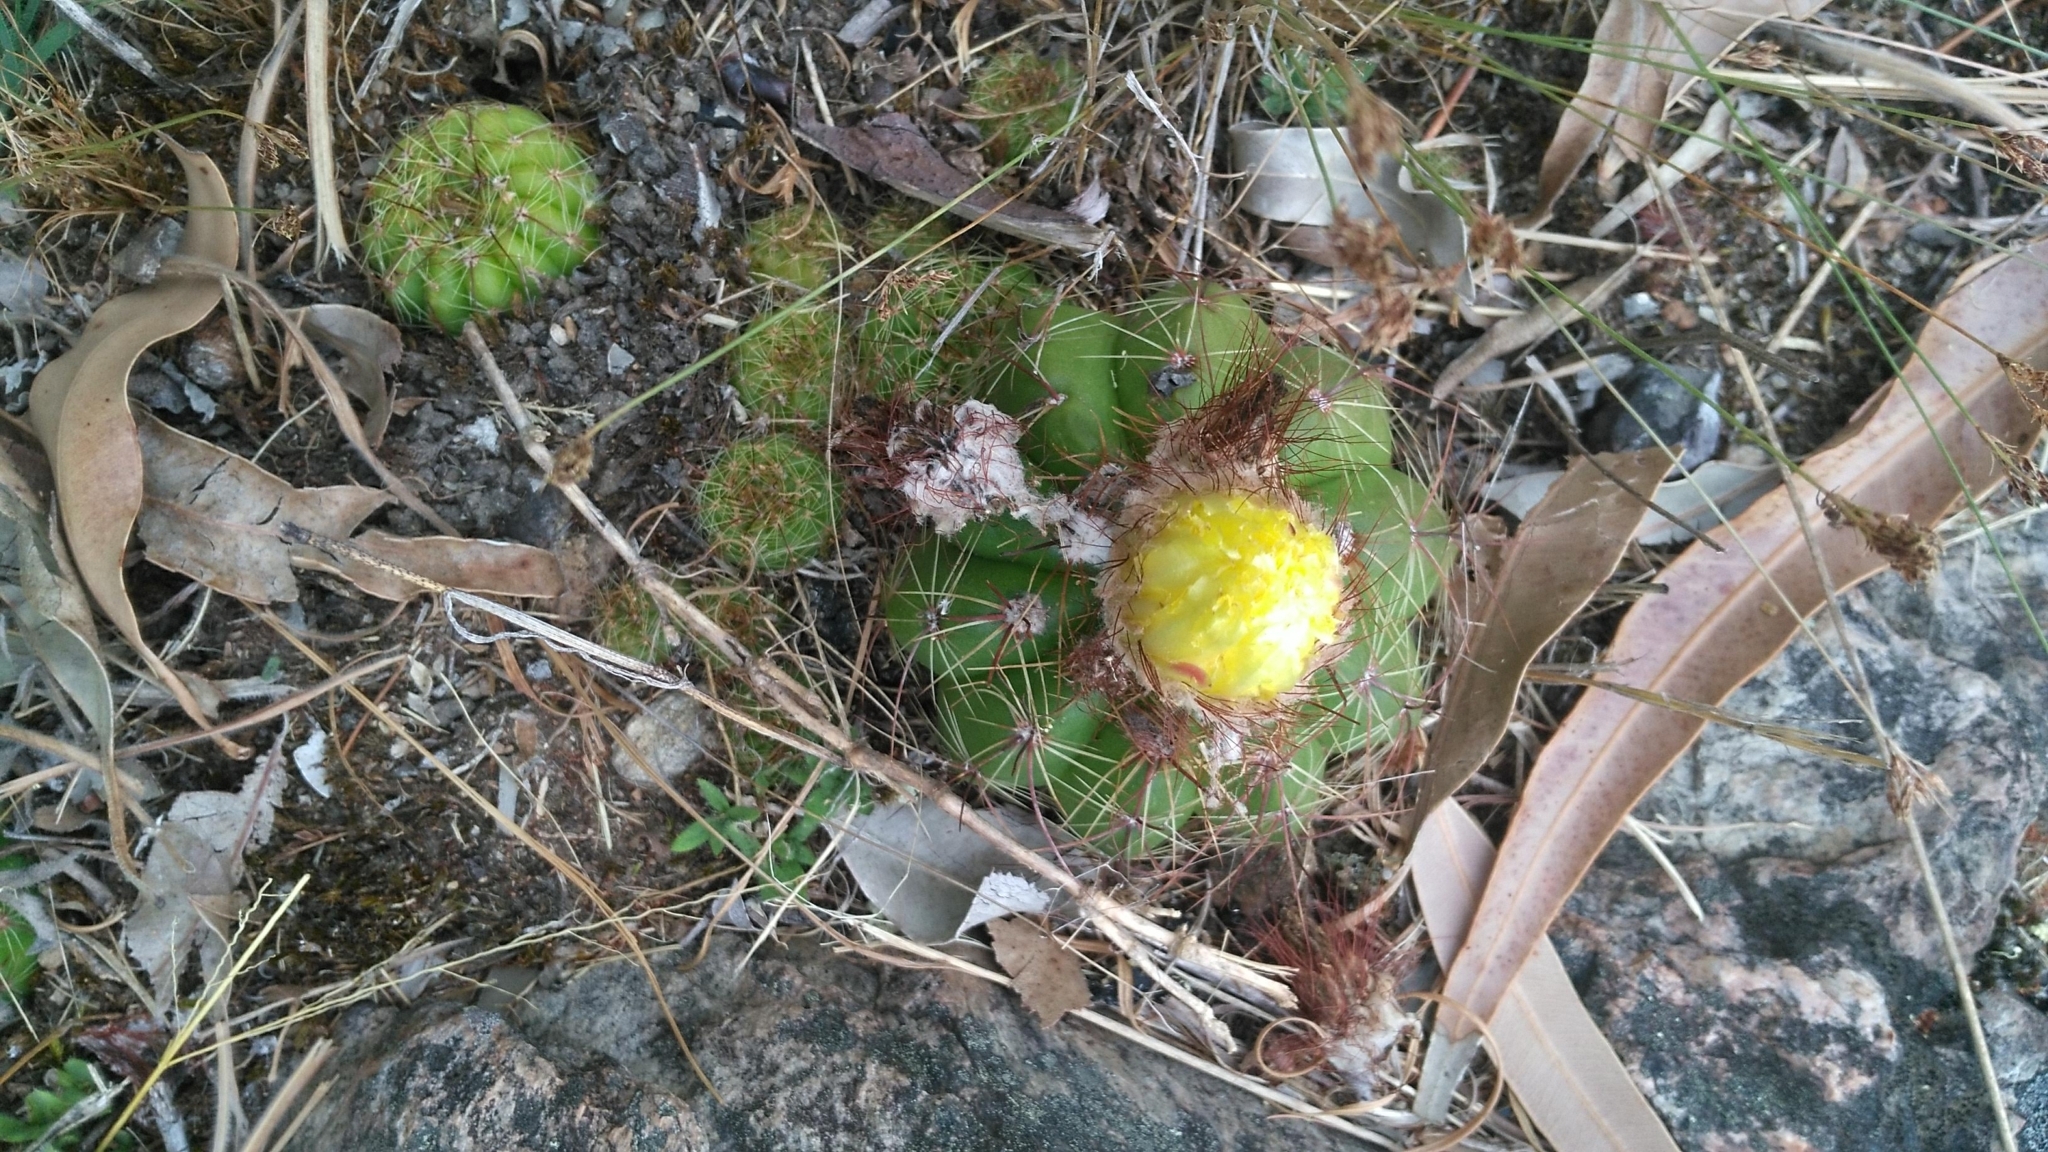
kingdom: Plantae
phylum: Tracheophyta
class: Magnoliopsida
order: Caryophyllales
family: Cactaceae
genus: Parodia
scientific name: Parodia ottonis
